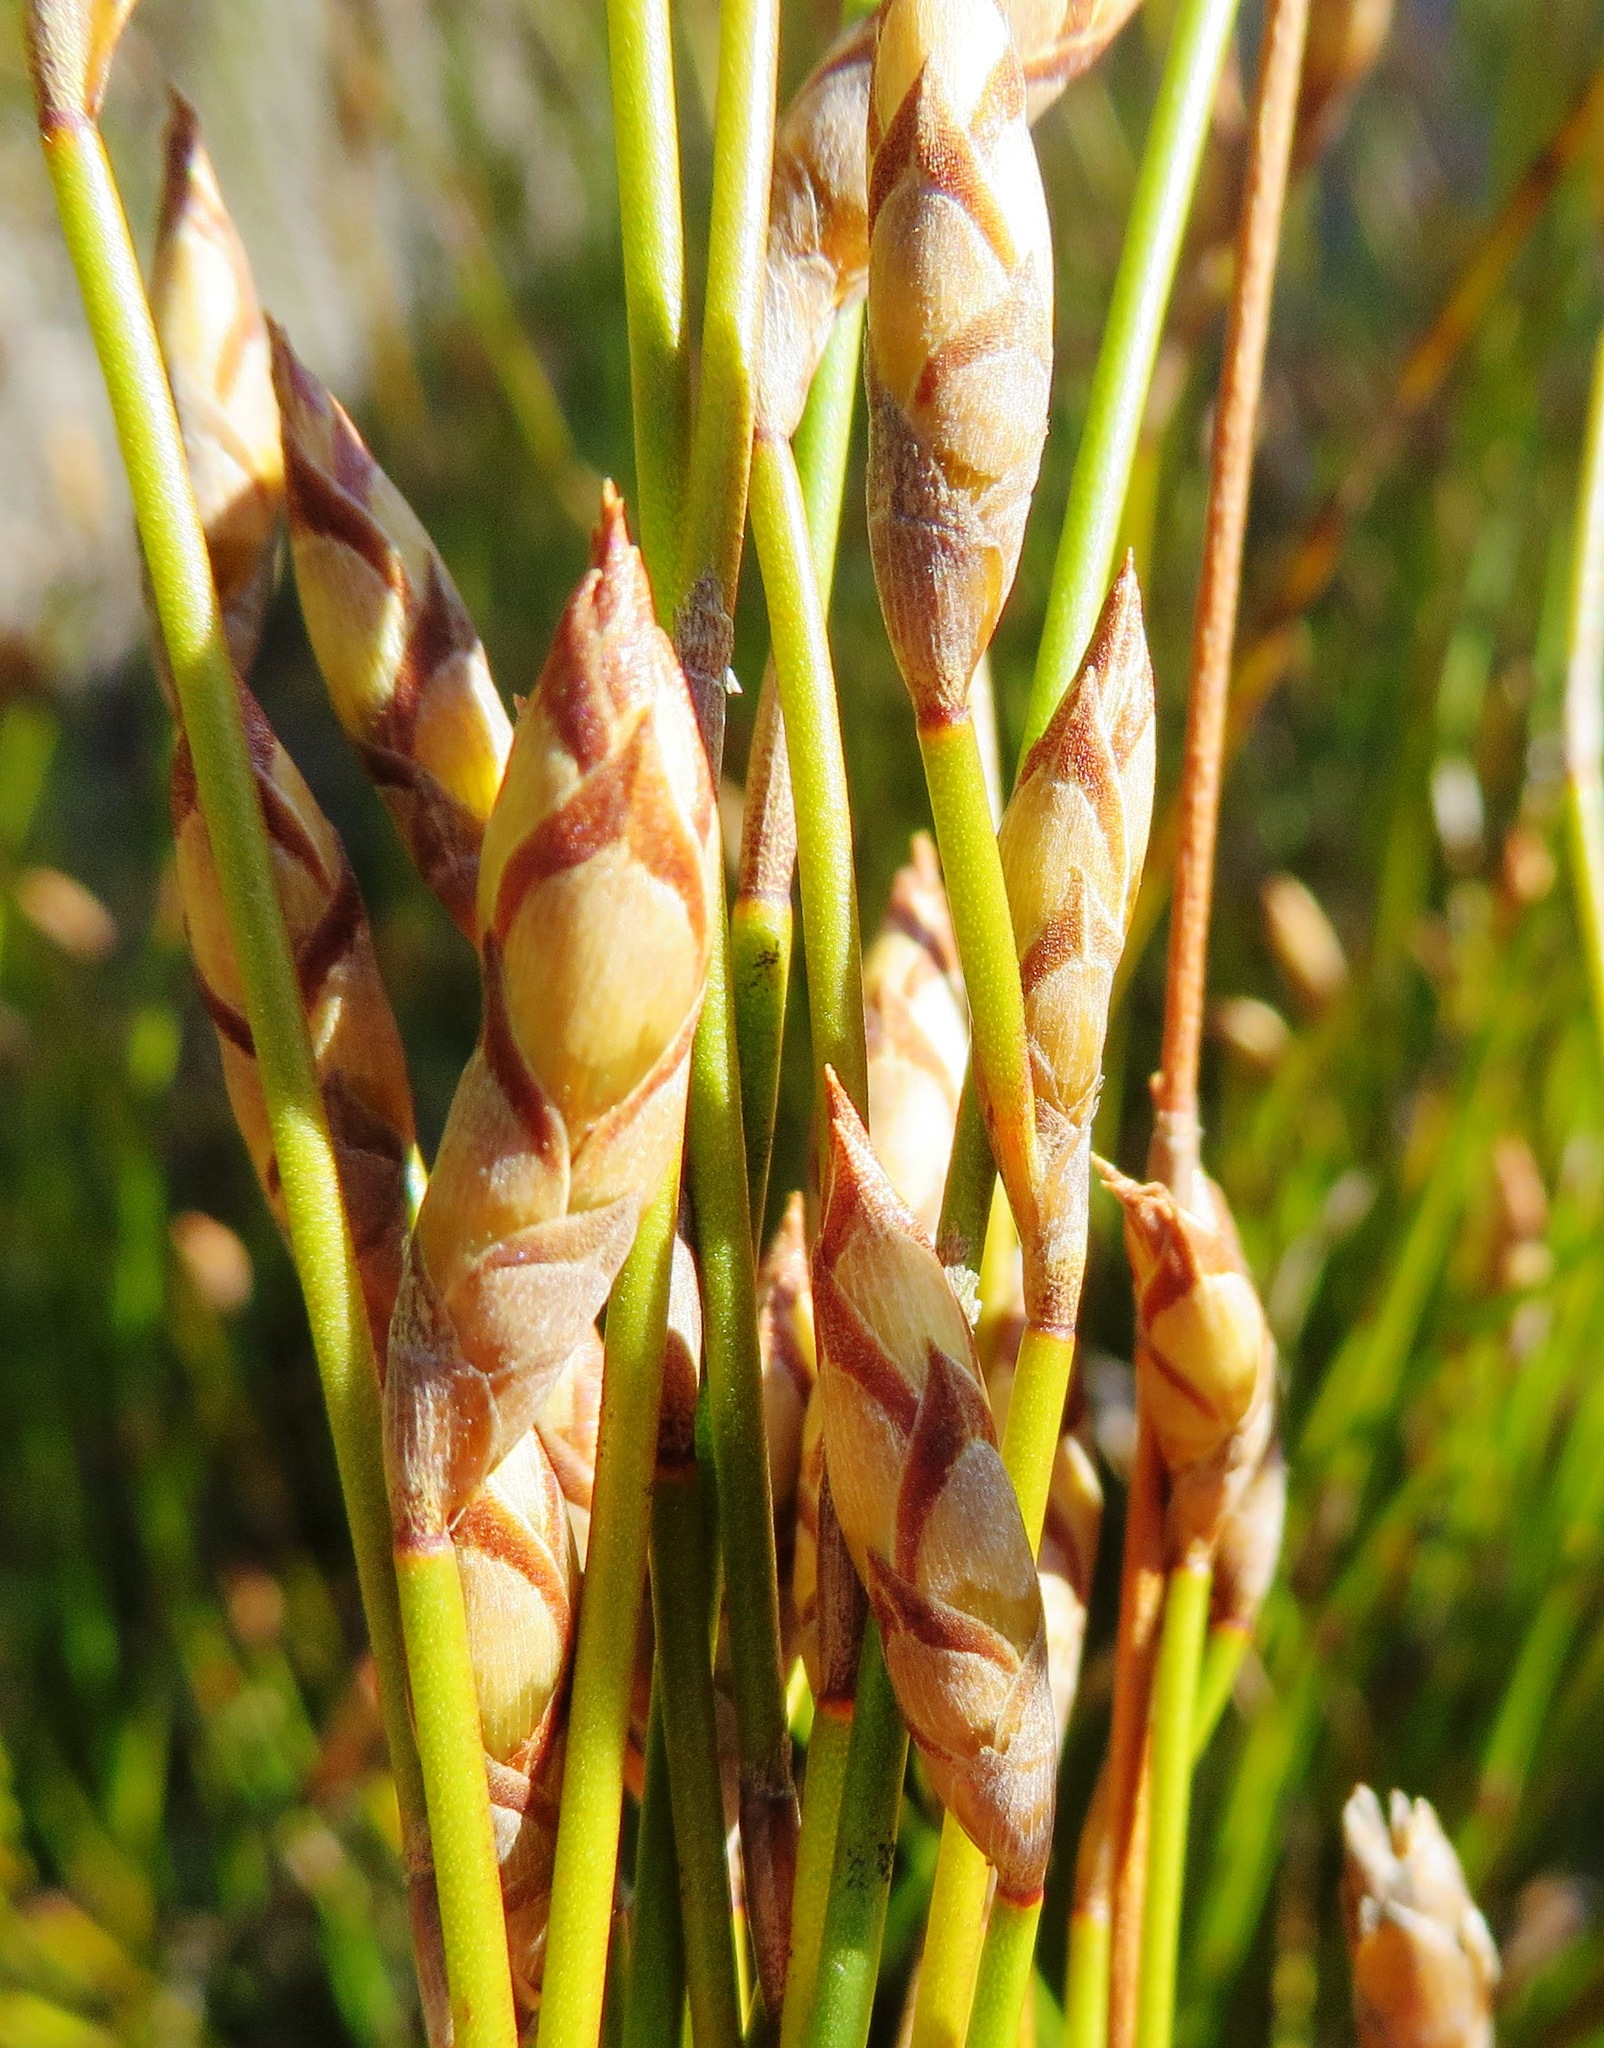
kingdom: Plantae
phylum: Tracheophyta
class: Liliopsida
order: Poales
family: Restionaceae
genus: Restio
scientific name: Restio fusiformis
